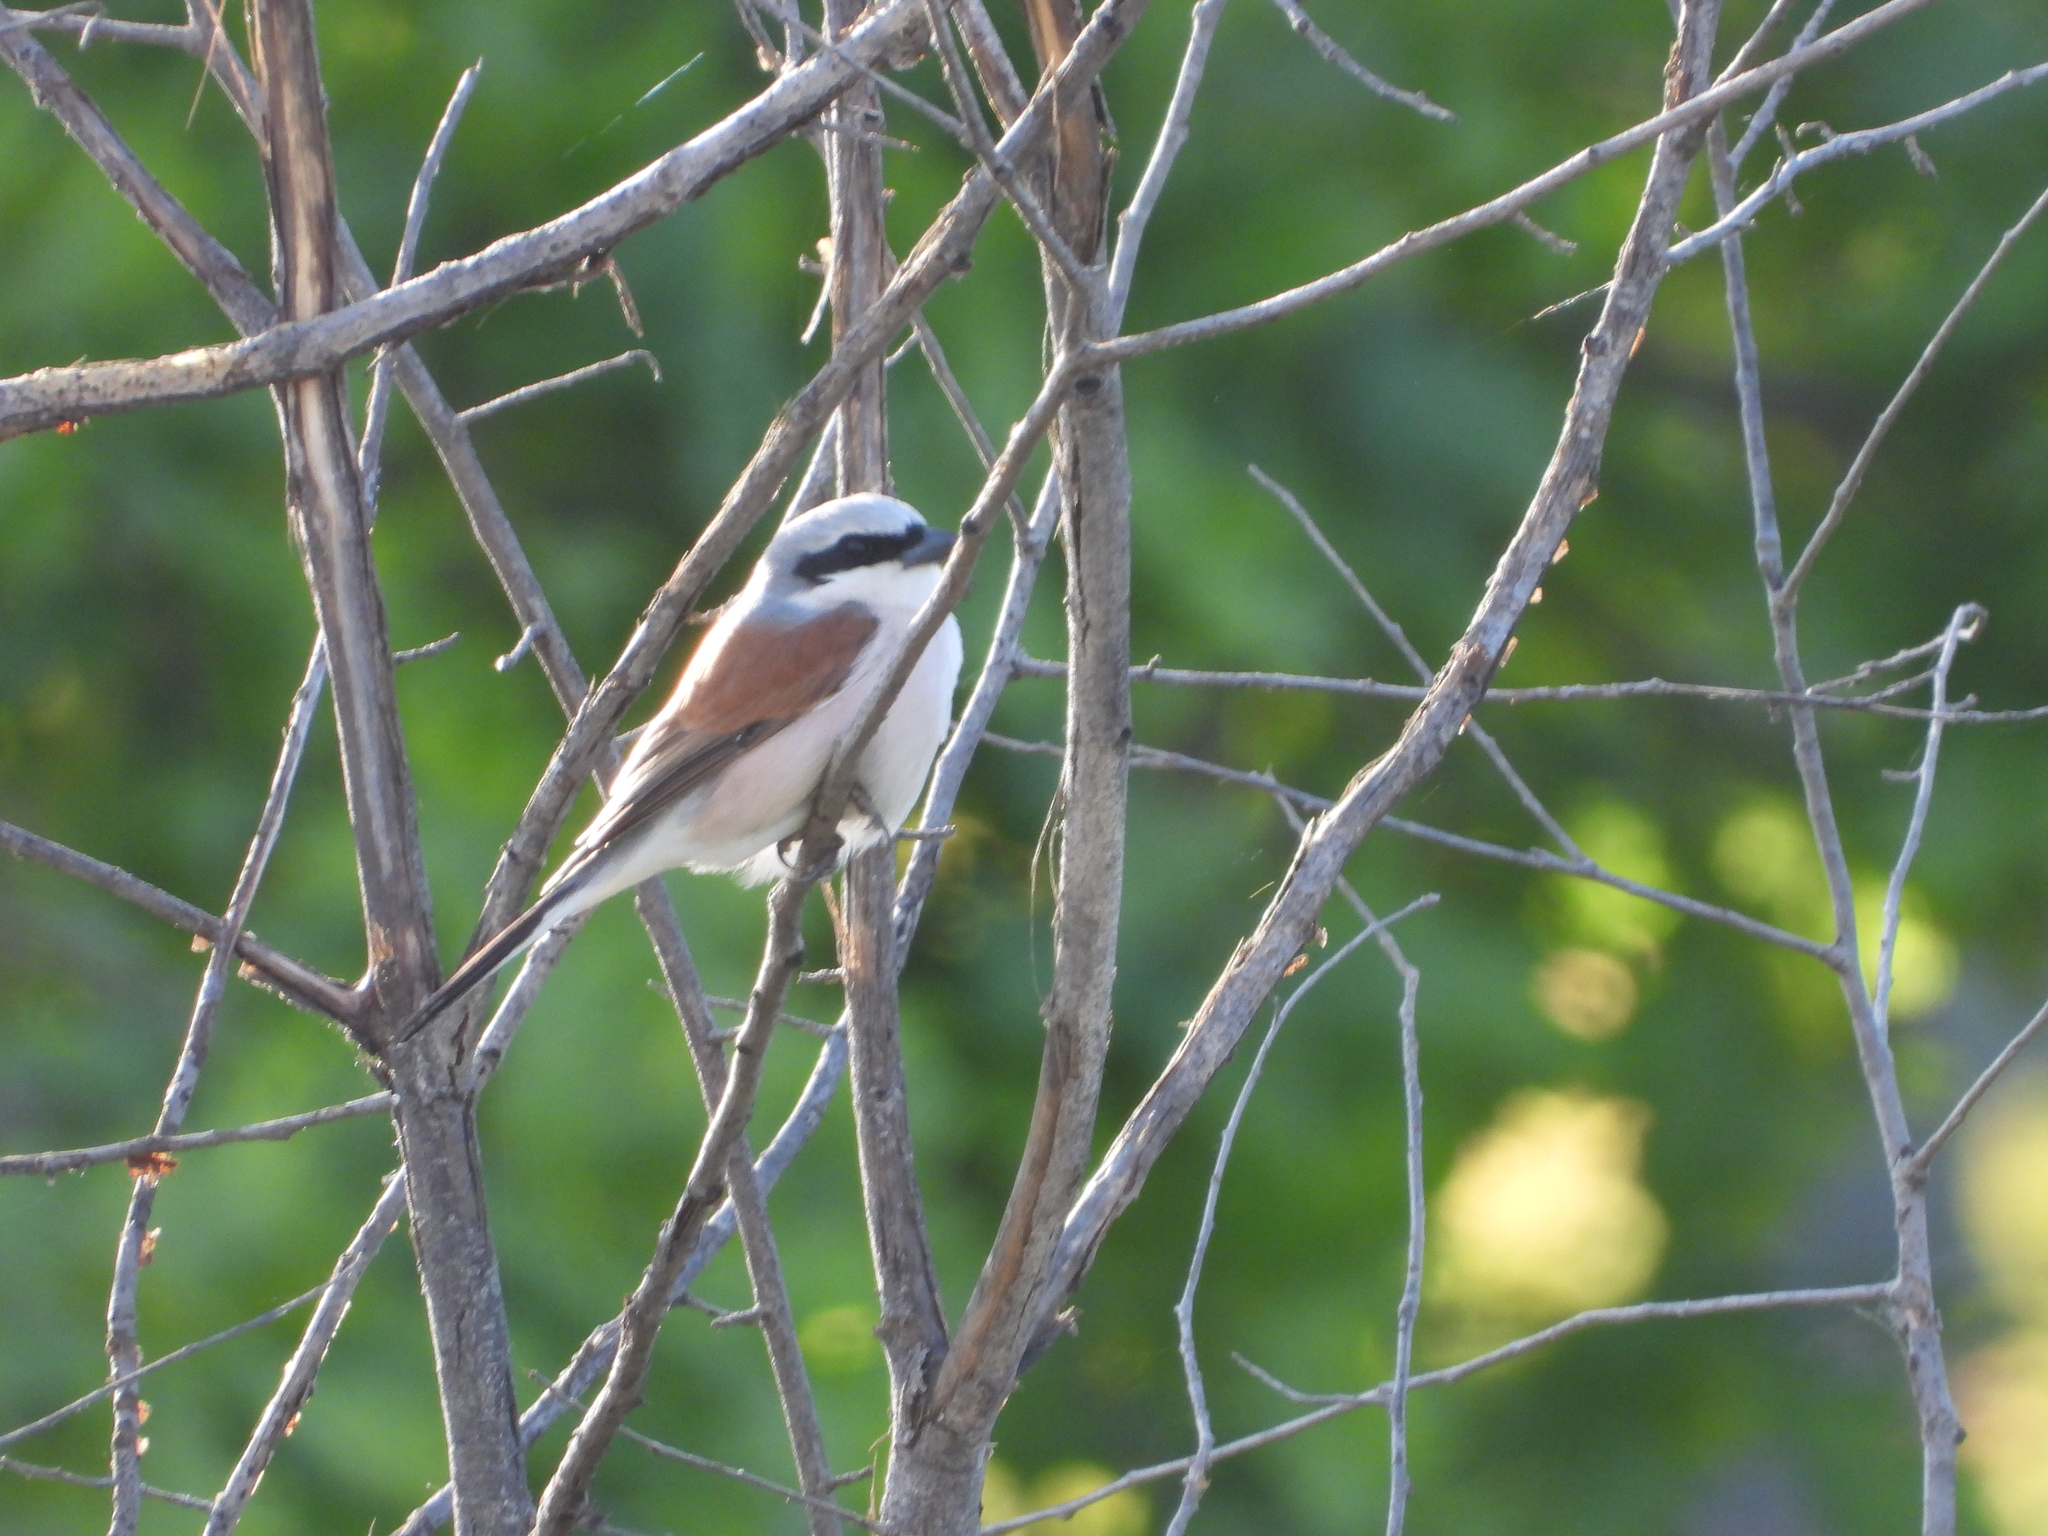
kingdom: Animalia
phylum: Chordata
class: Aves
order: Passeriformes
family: Laniidae
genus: Lanius
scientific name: Lanius collurio
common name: Red-backed shrike
